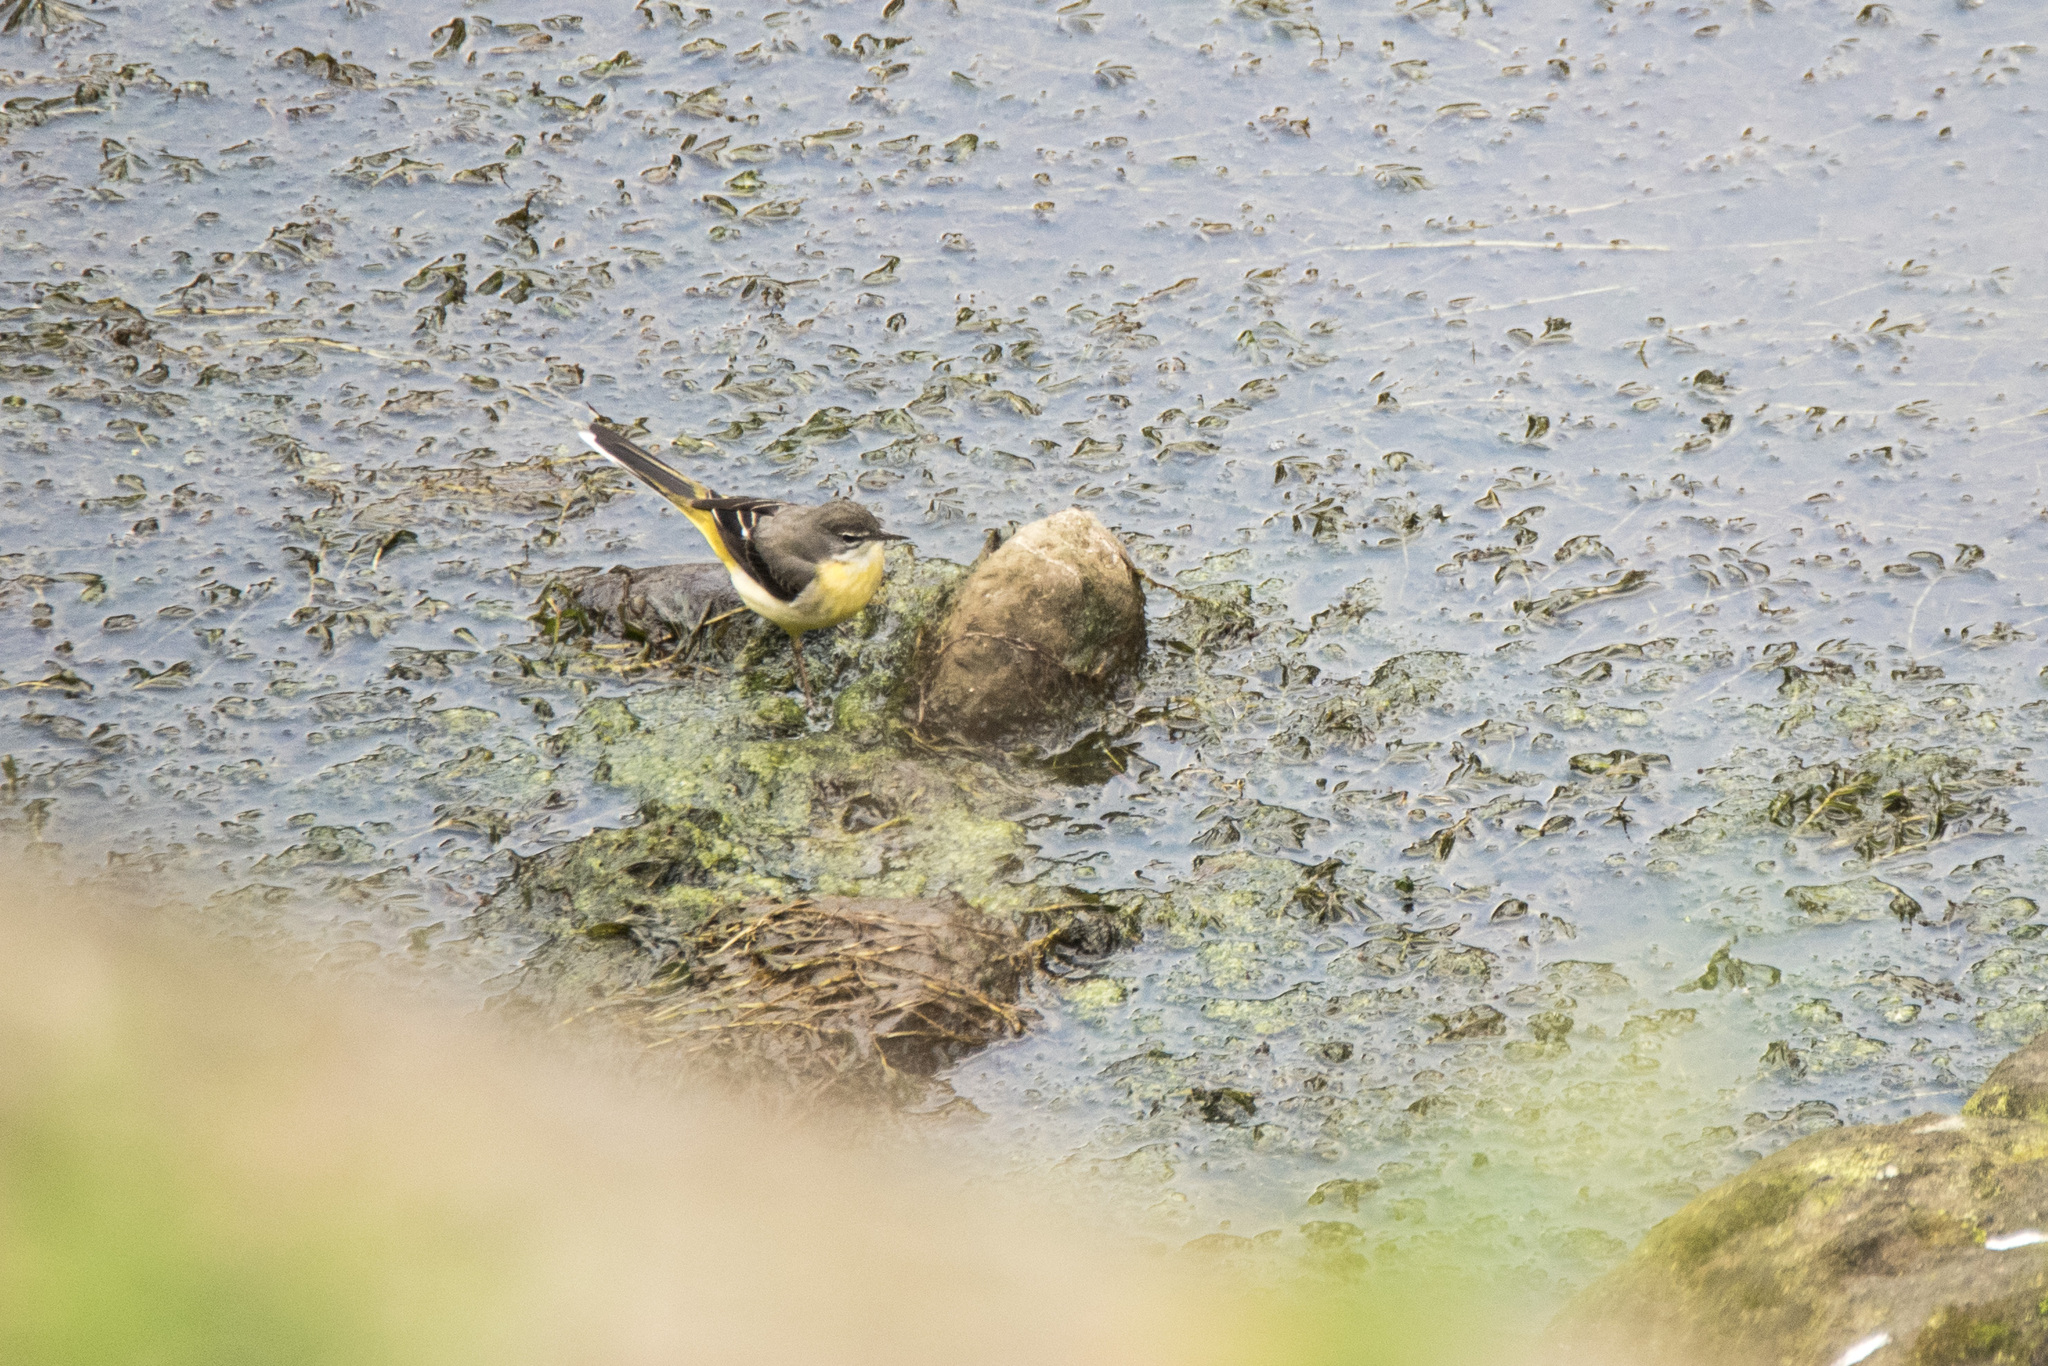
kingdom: Animalia
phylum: Chordata
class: Aves
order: Passeriformes
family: Motacillidae
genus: Motacilla
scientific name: Motacilla cinerea
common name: Grey wagtail
